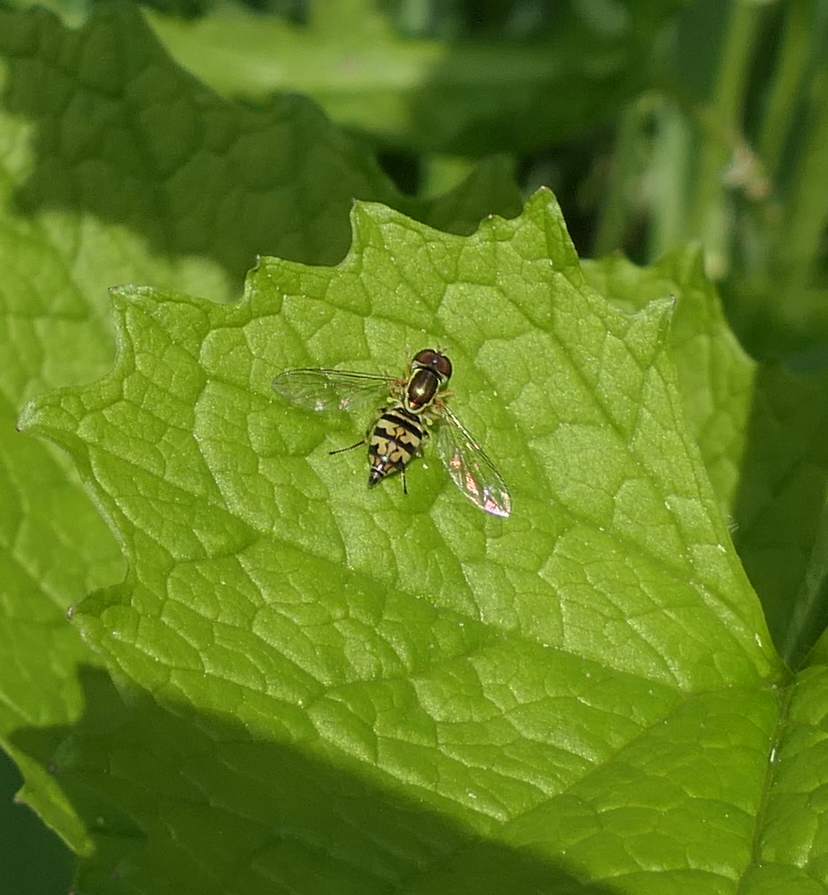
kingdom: Animalia
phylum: Arthropoda
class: Insecta
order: Diptera
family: Syrphidae
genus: Toxomerus
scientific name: Toxomerus geminatus
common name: Eastern calligrapher
